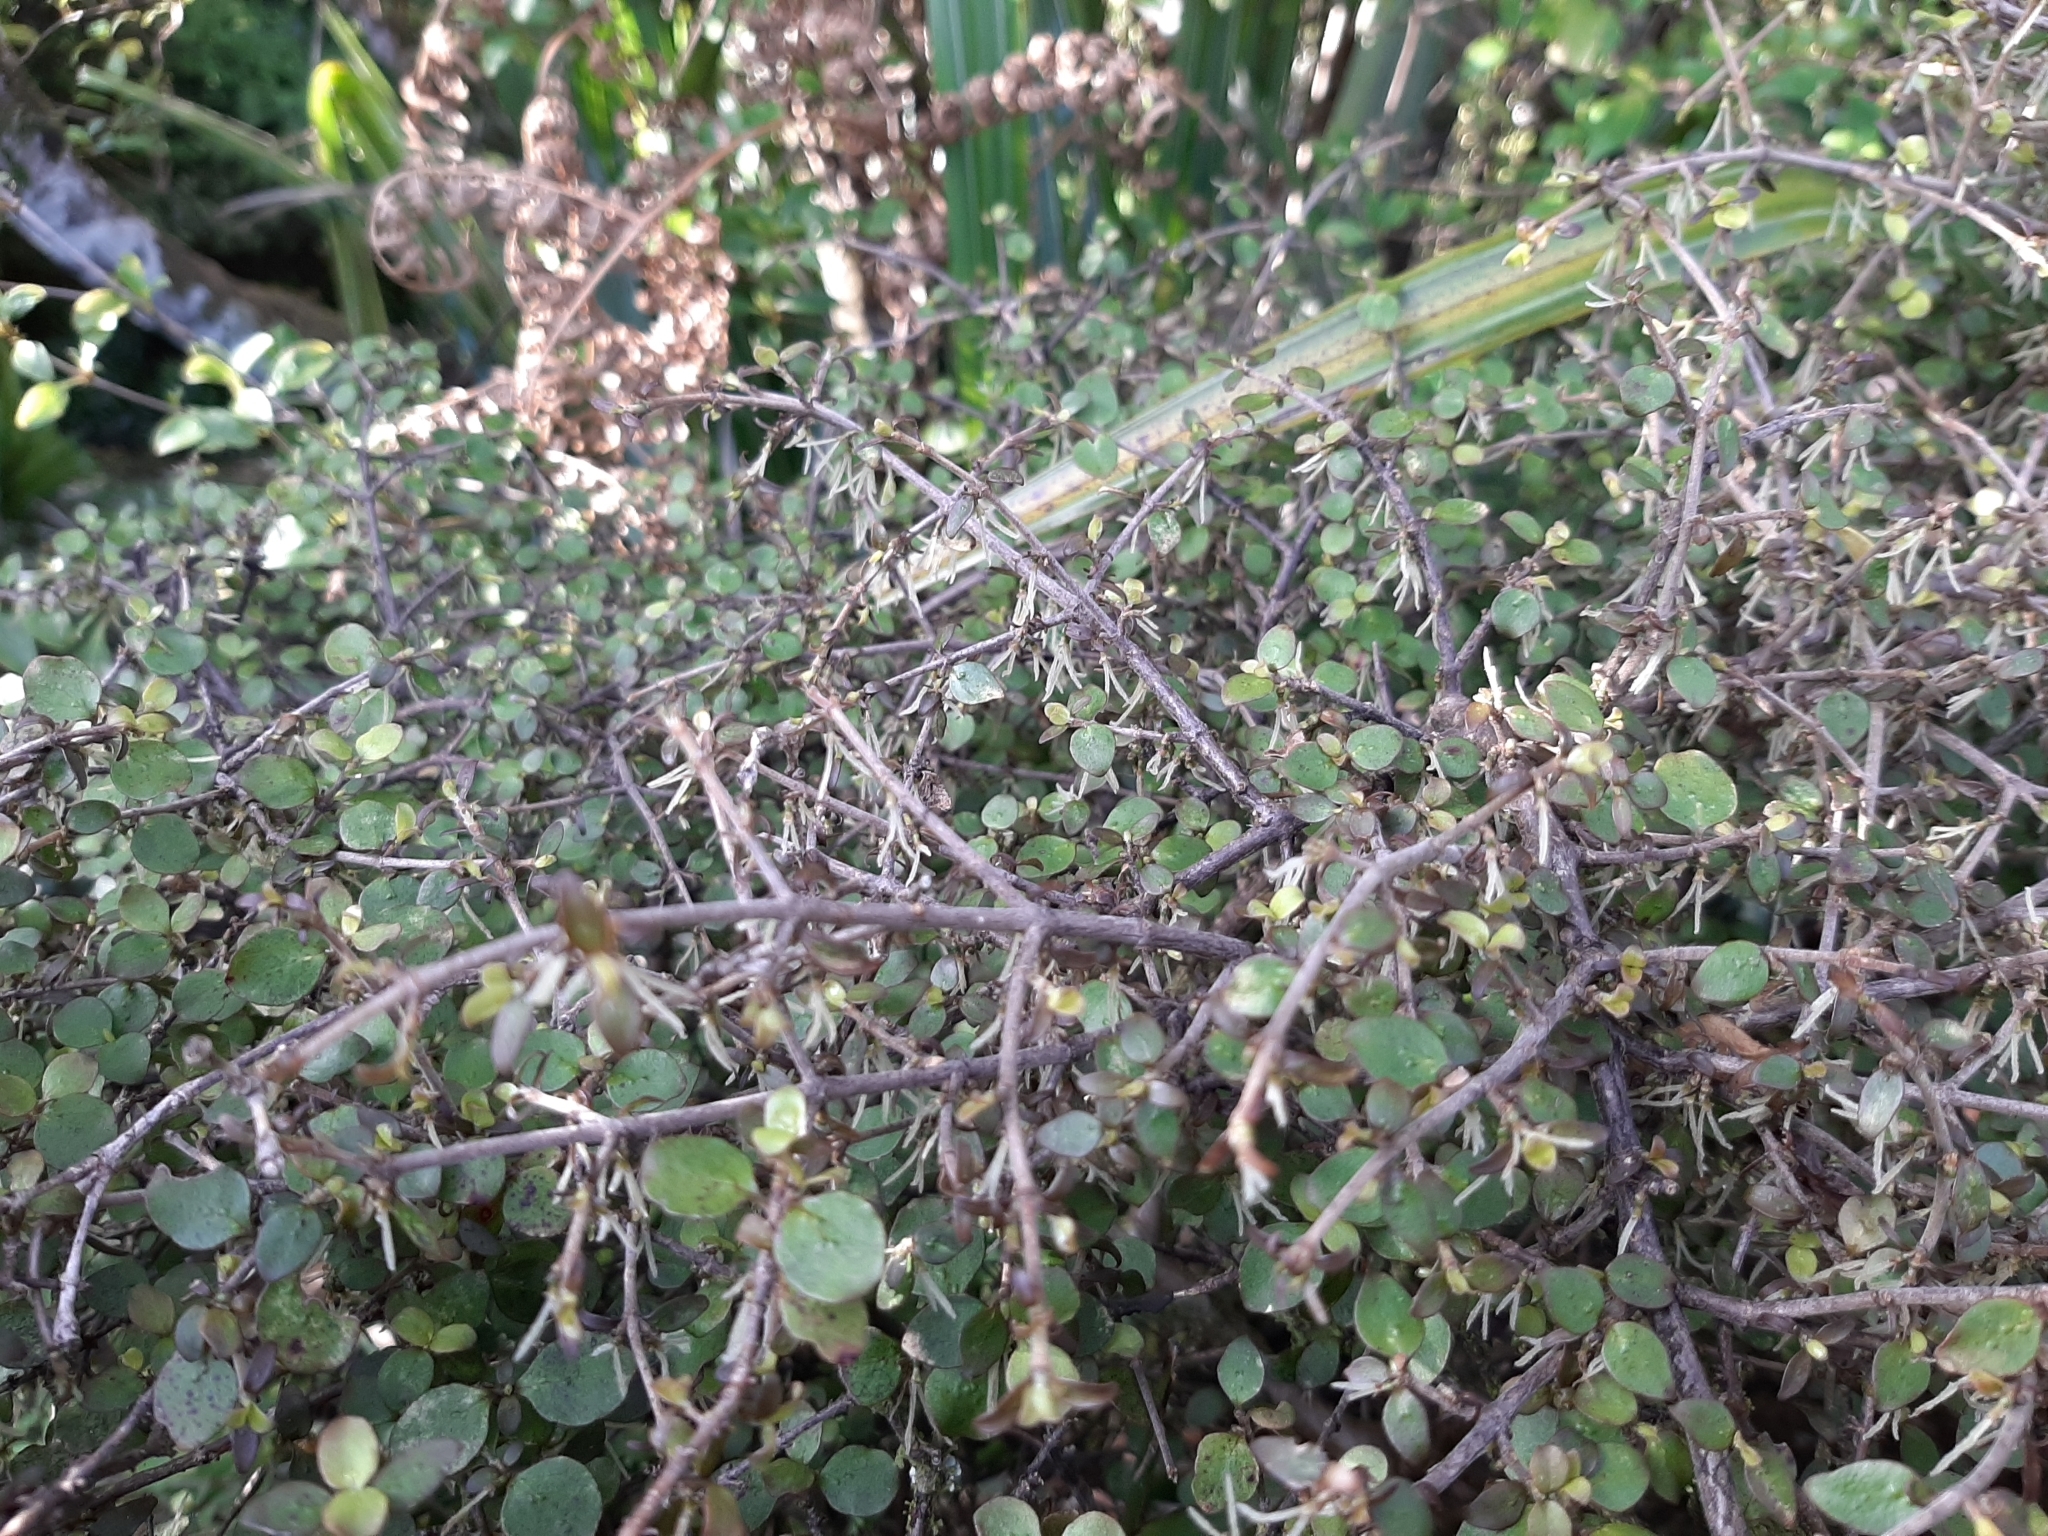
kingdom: Plantae
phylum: Tracheophyta
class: Magnoliopsida
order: Gentianales
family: Rubiaceae
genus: Coprosma
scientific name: Coprosma rhamnoides
